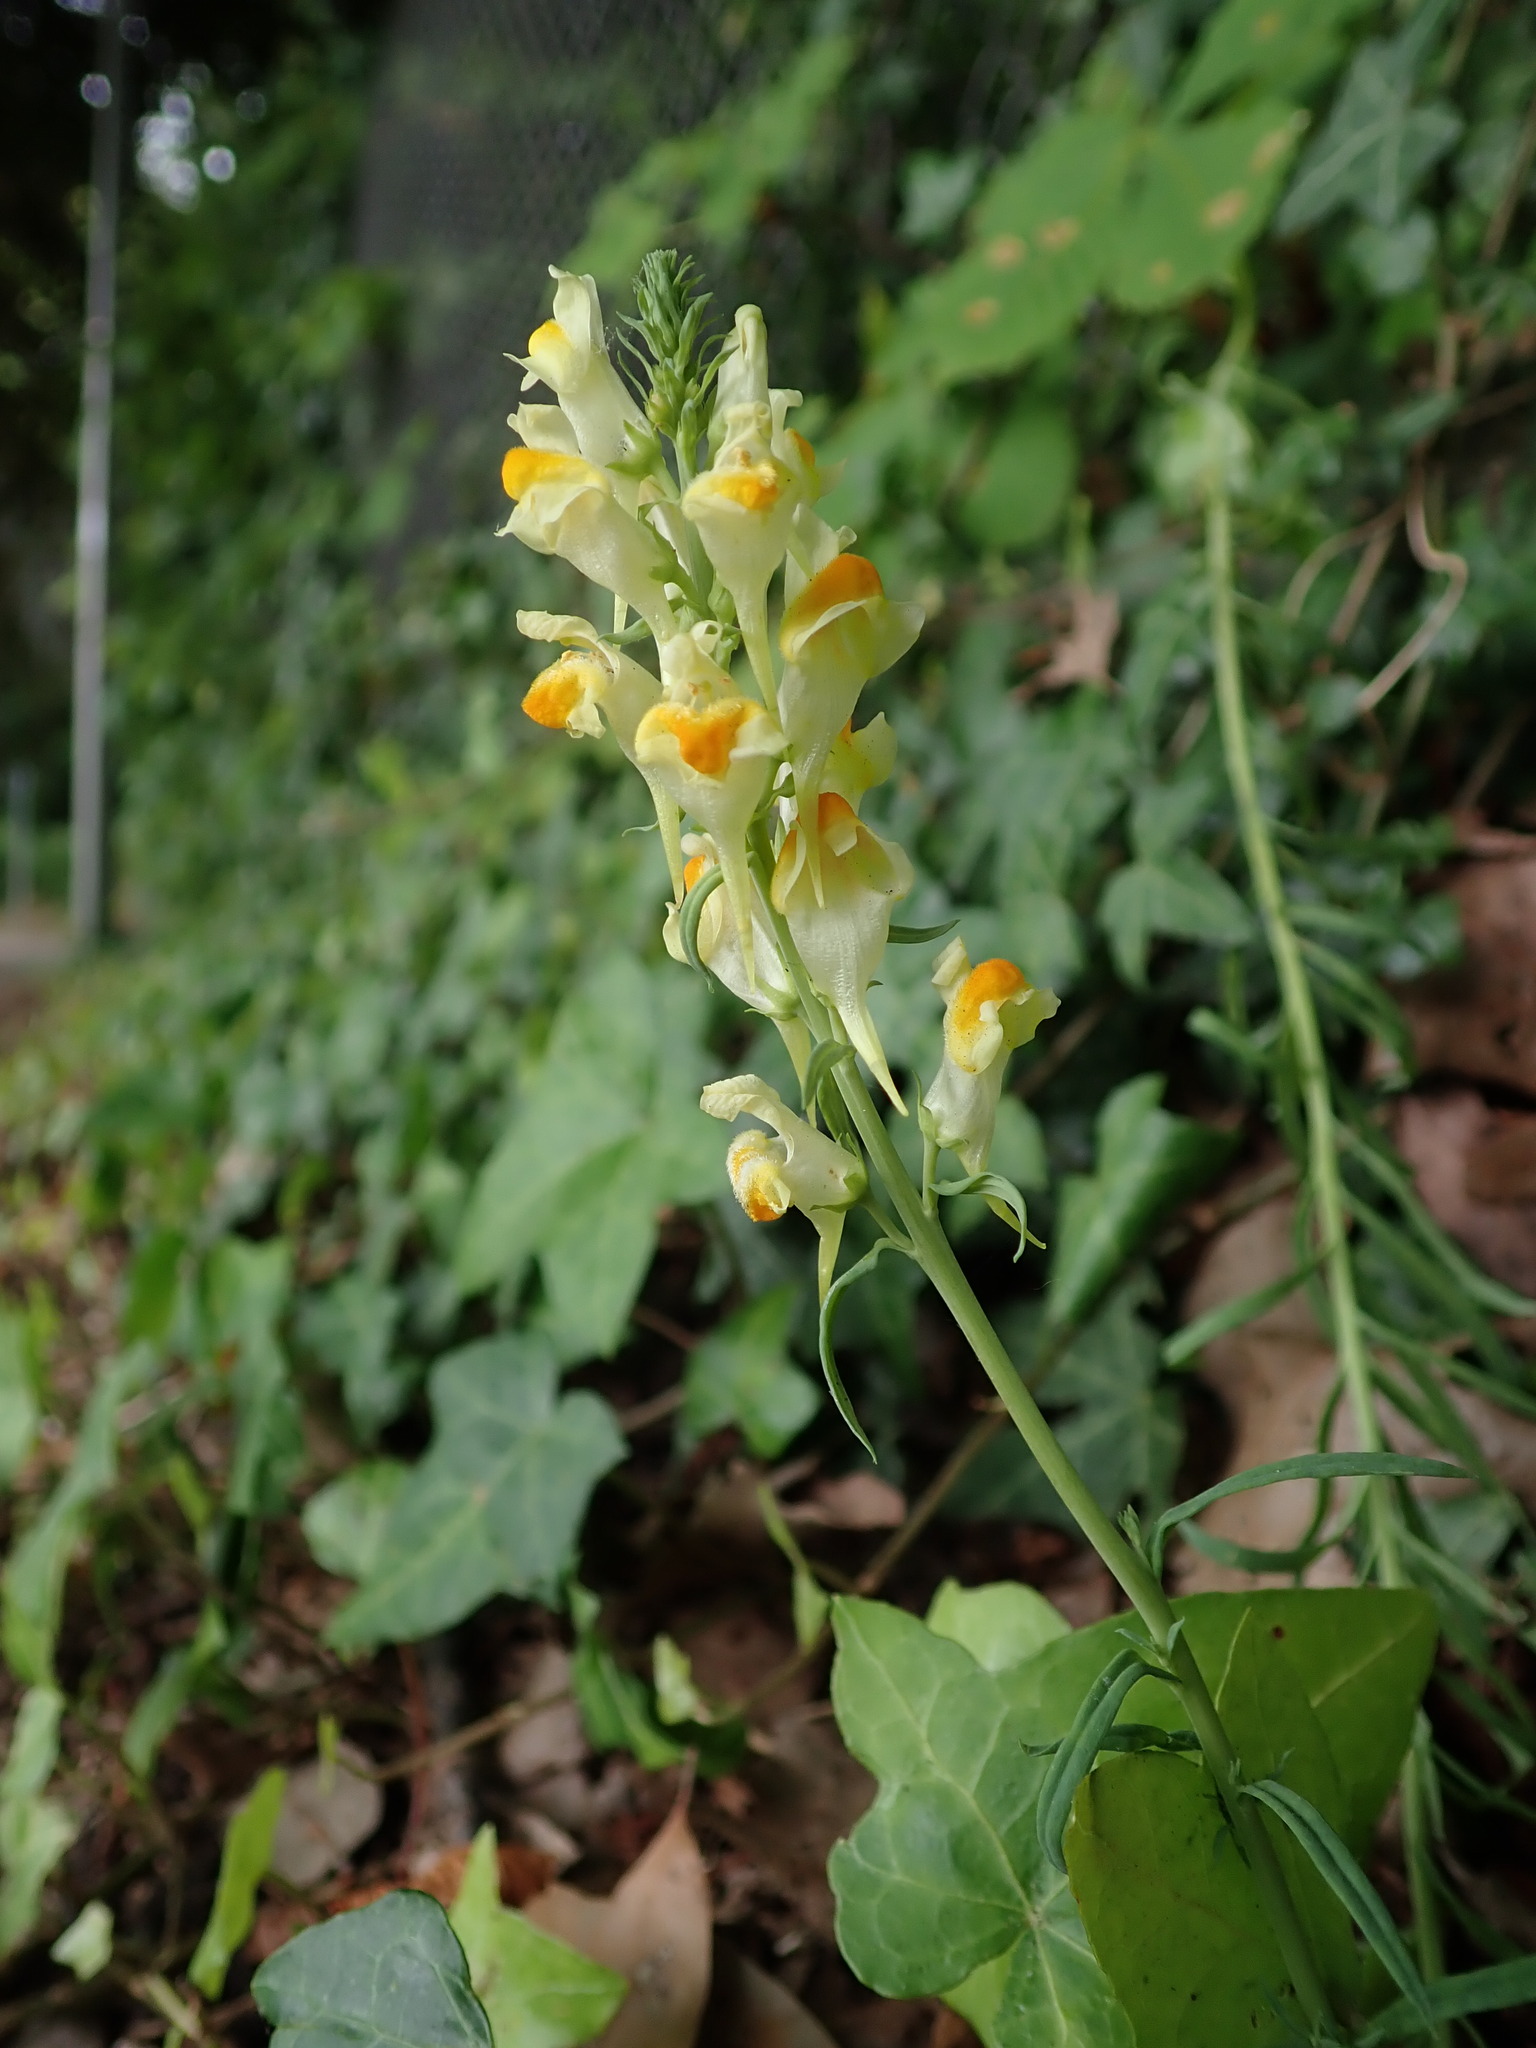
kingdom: Plantae
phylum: Tracheophyta
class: Magnoliopsida
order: Lamiales
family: Plantaginaceae
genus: Linaria
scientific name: Linaria vulgaris
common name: Butter and eggs
